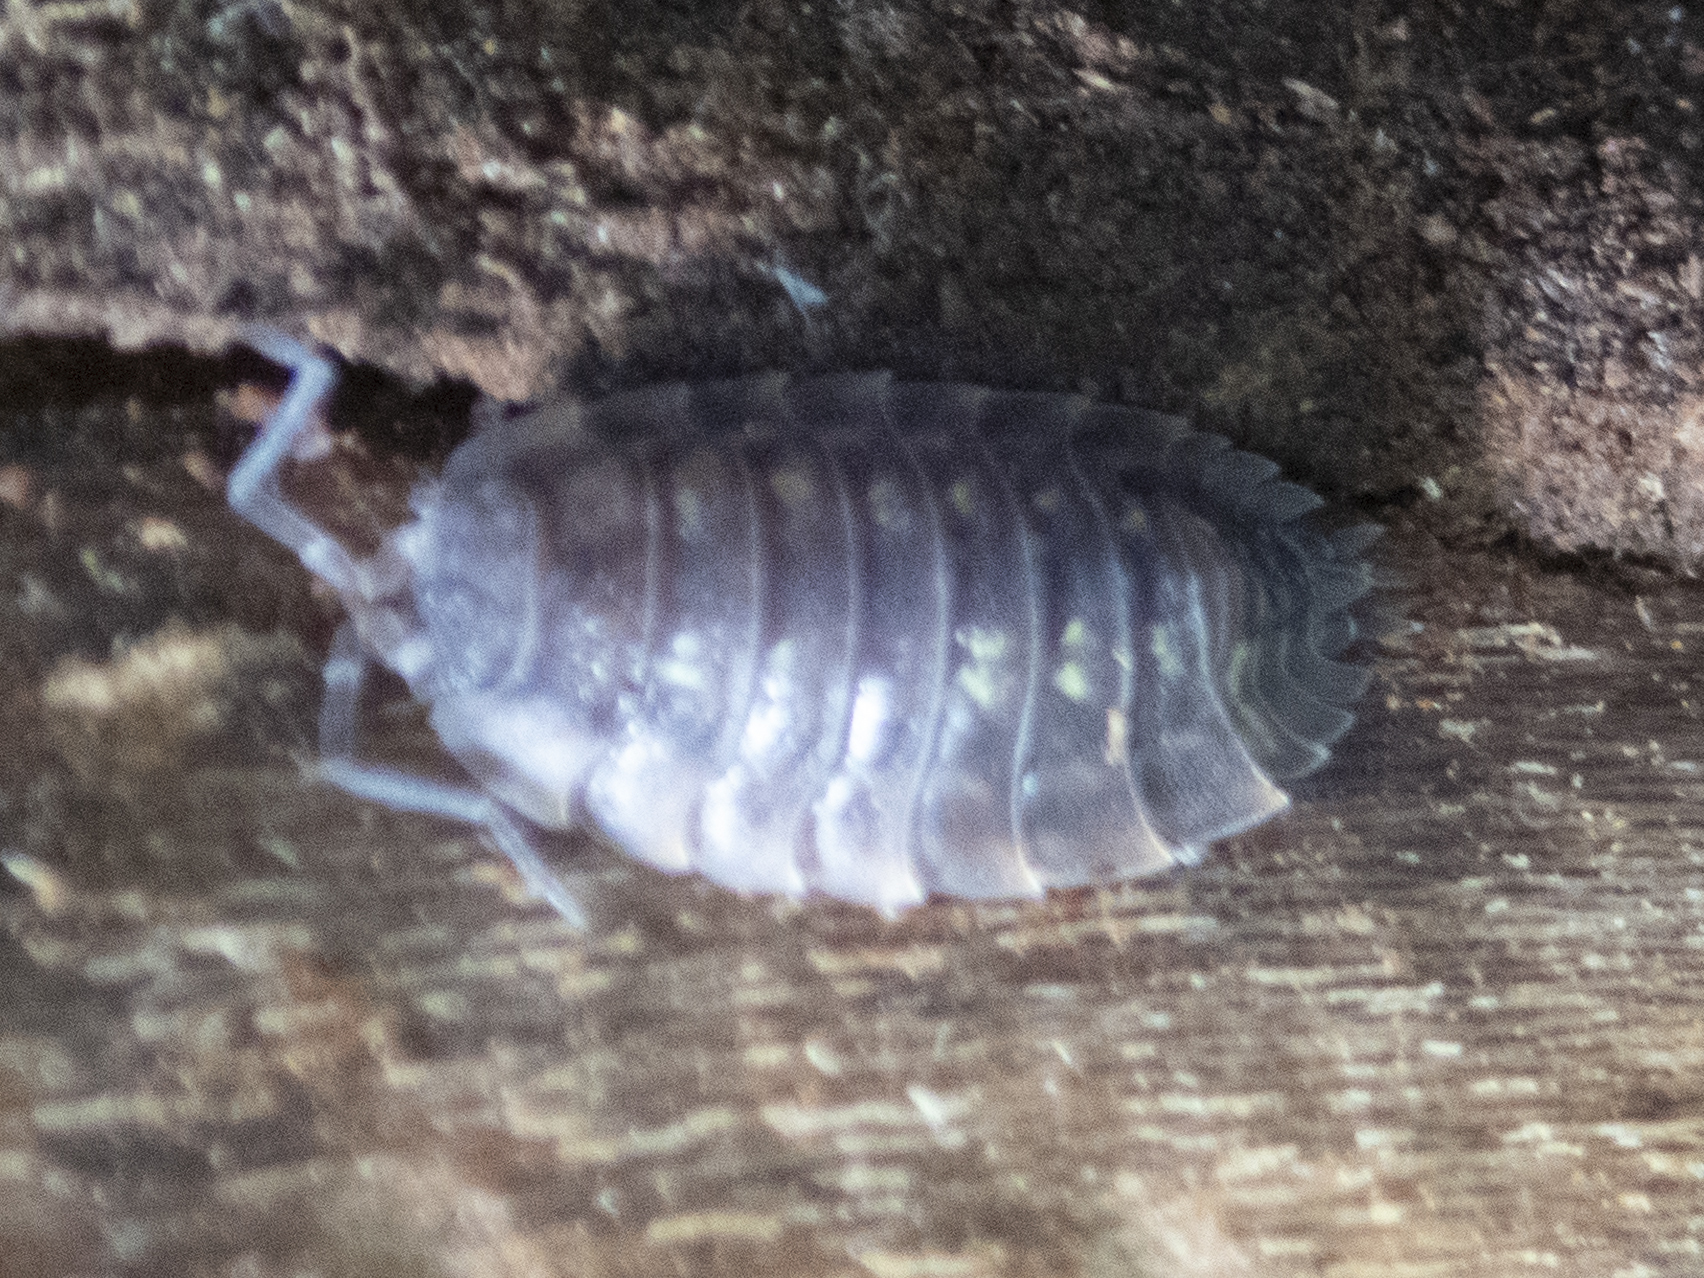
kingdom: Animalia
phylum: Arthropoda
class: Malacostraca
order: Isopoda
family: Armadillidiidae
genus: Armadillidium
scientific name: Armadillidium nasatum
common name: Isopod
